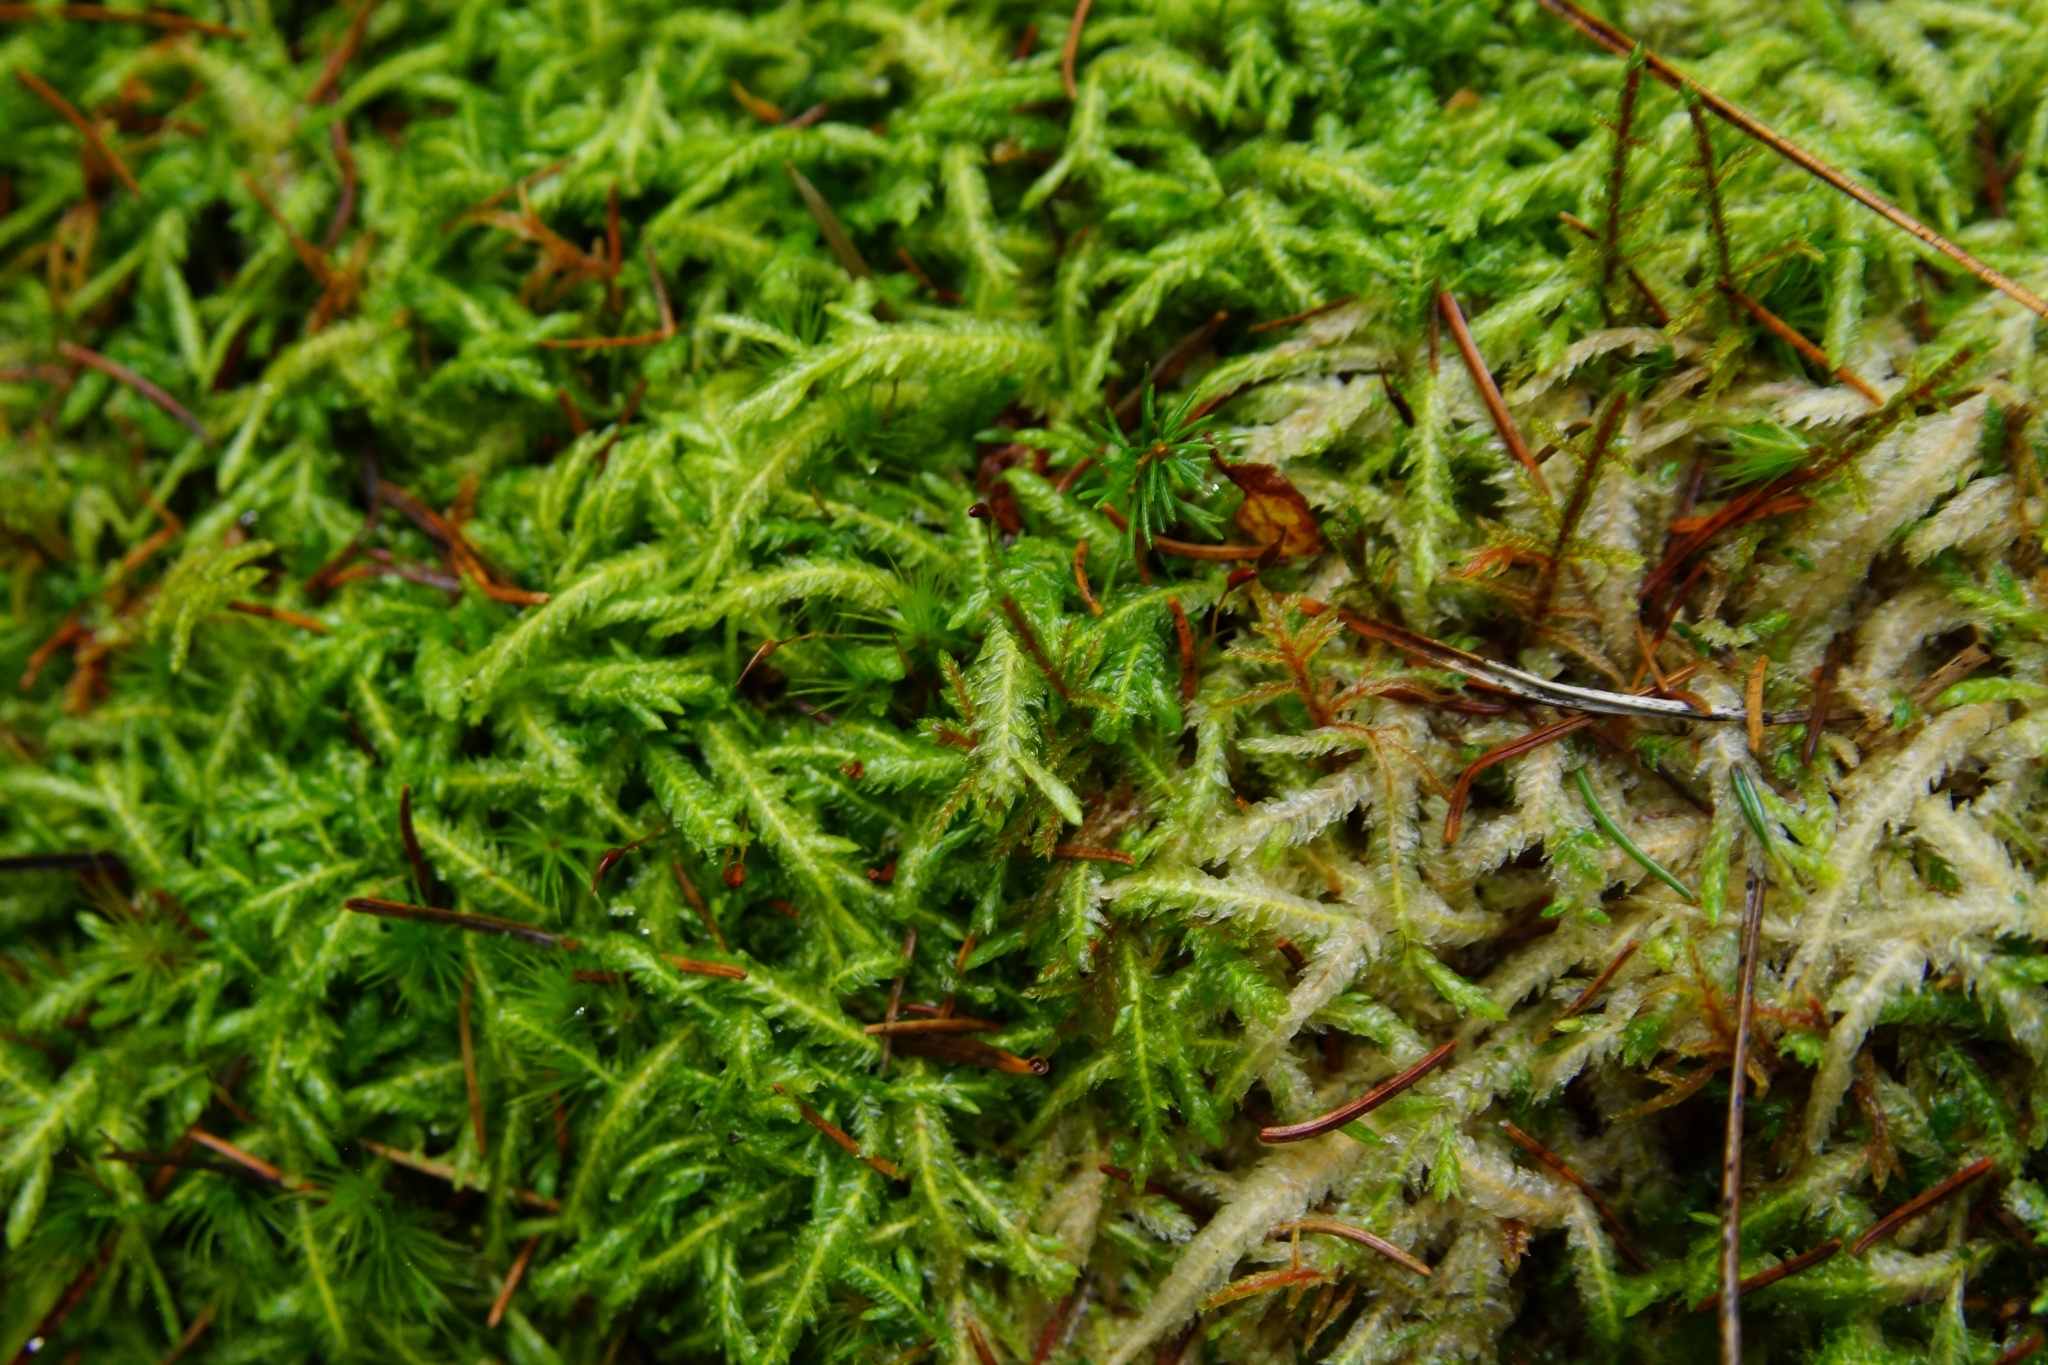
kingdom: Plantae
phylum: Bryophyta
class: Bryopsida
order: Hypnales
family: Plagiotheciaceae
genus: Plagiothecium
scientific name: Plagiothecium undulatum
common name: Waved silk-moss
